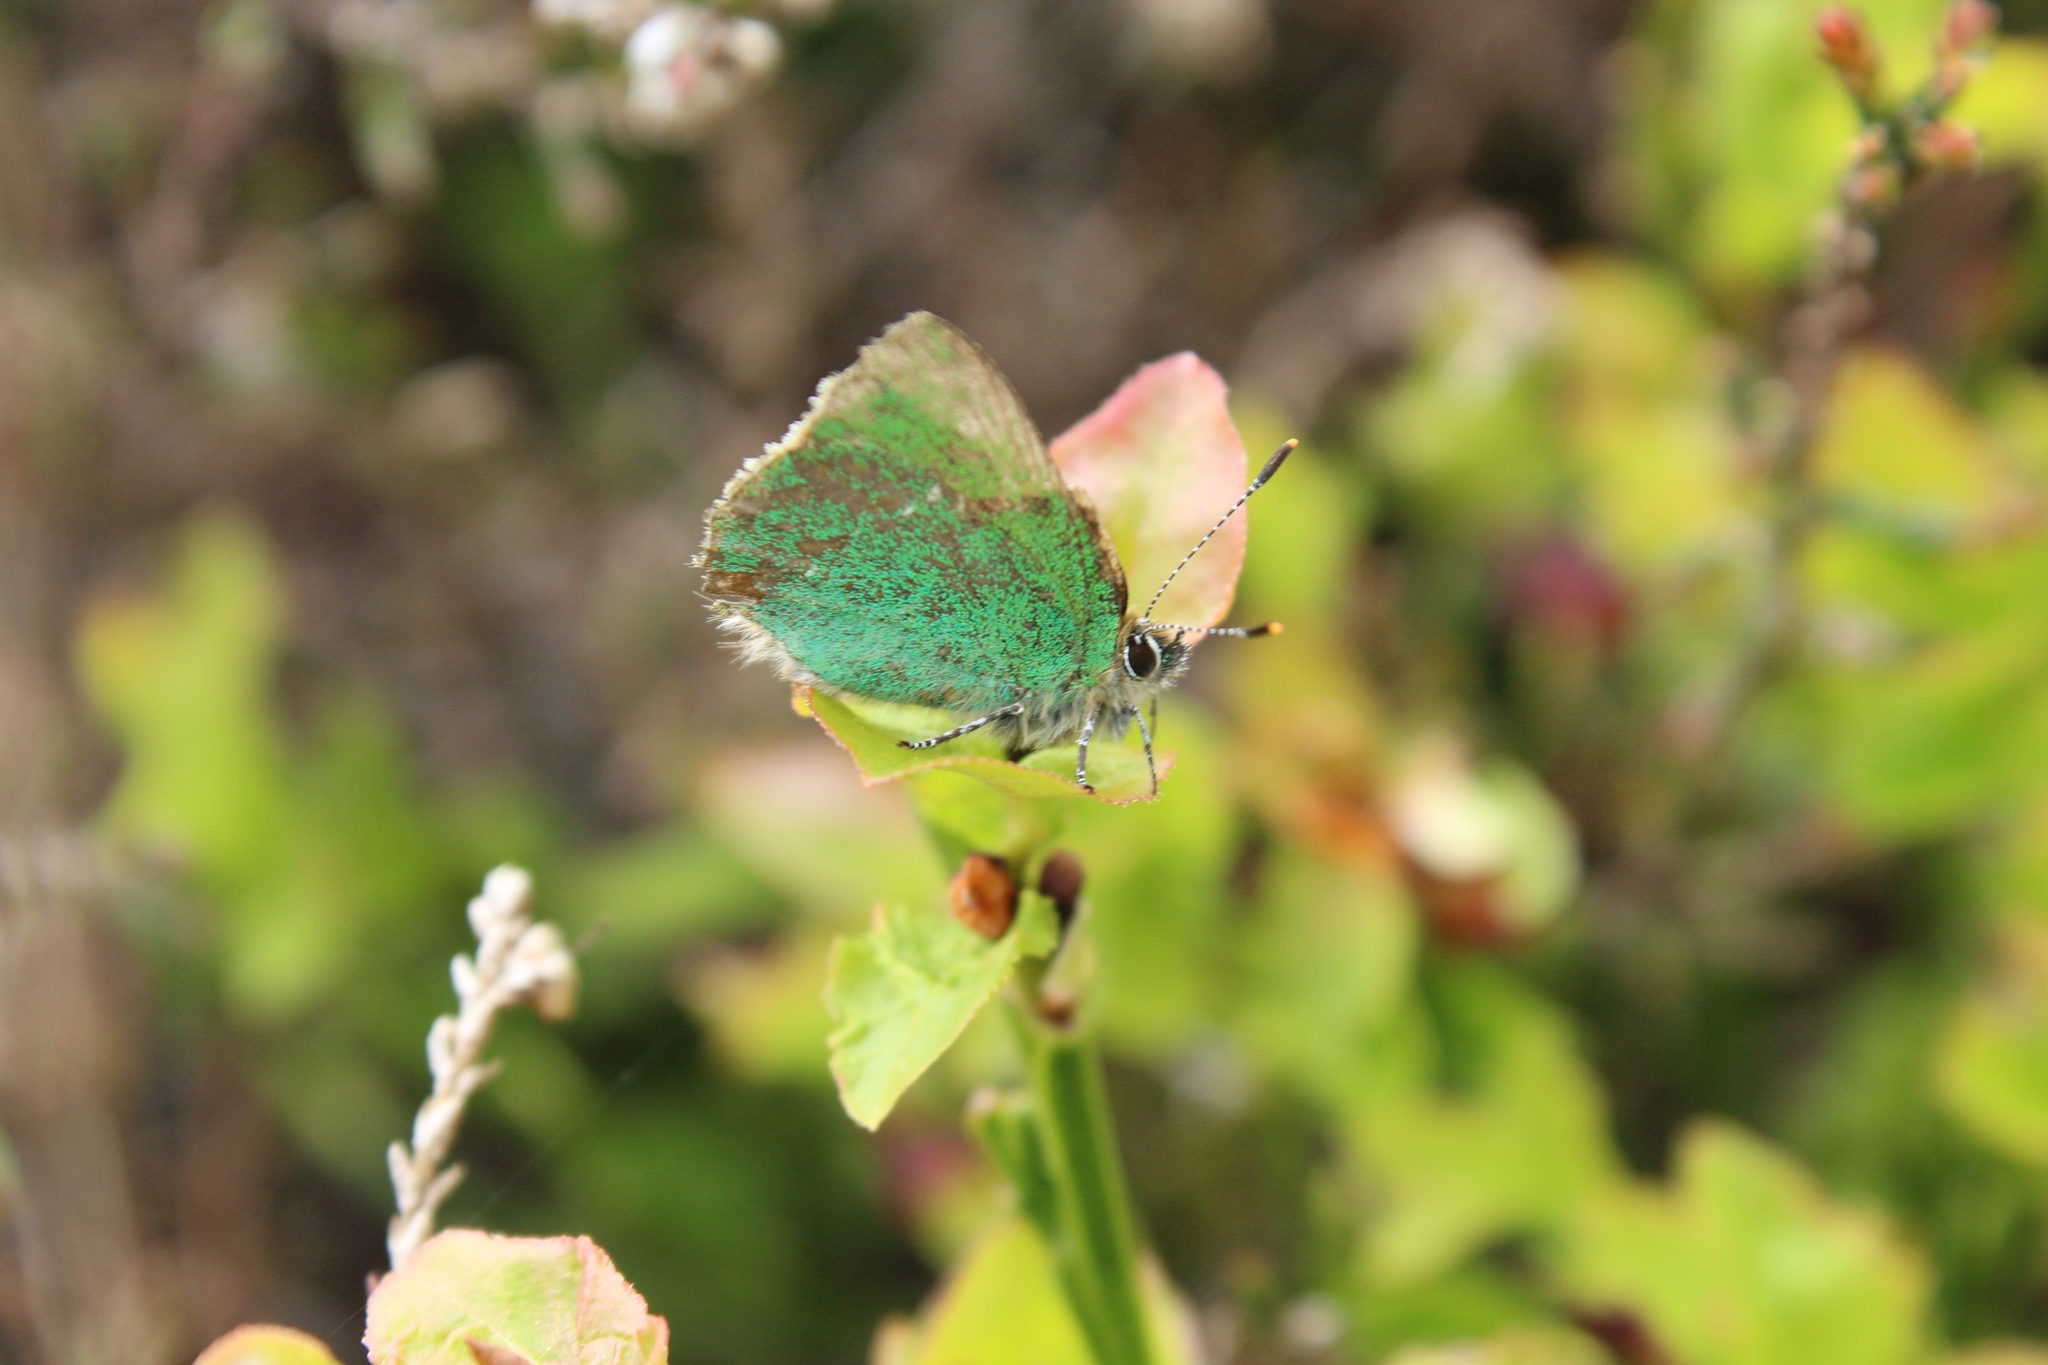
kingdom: Animalia
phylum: Arthropoda
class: Insecta
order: Lepidoptera
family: Lycaenidae
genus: Callophrys
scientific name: Callophrys rubi
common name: Green hairstreak
